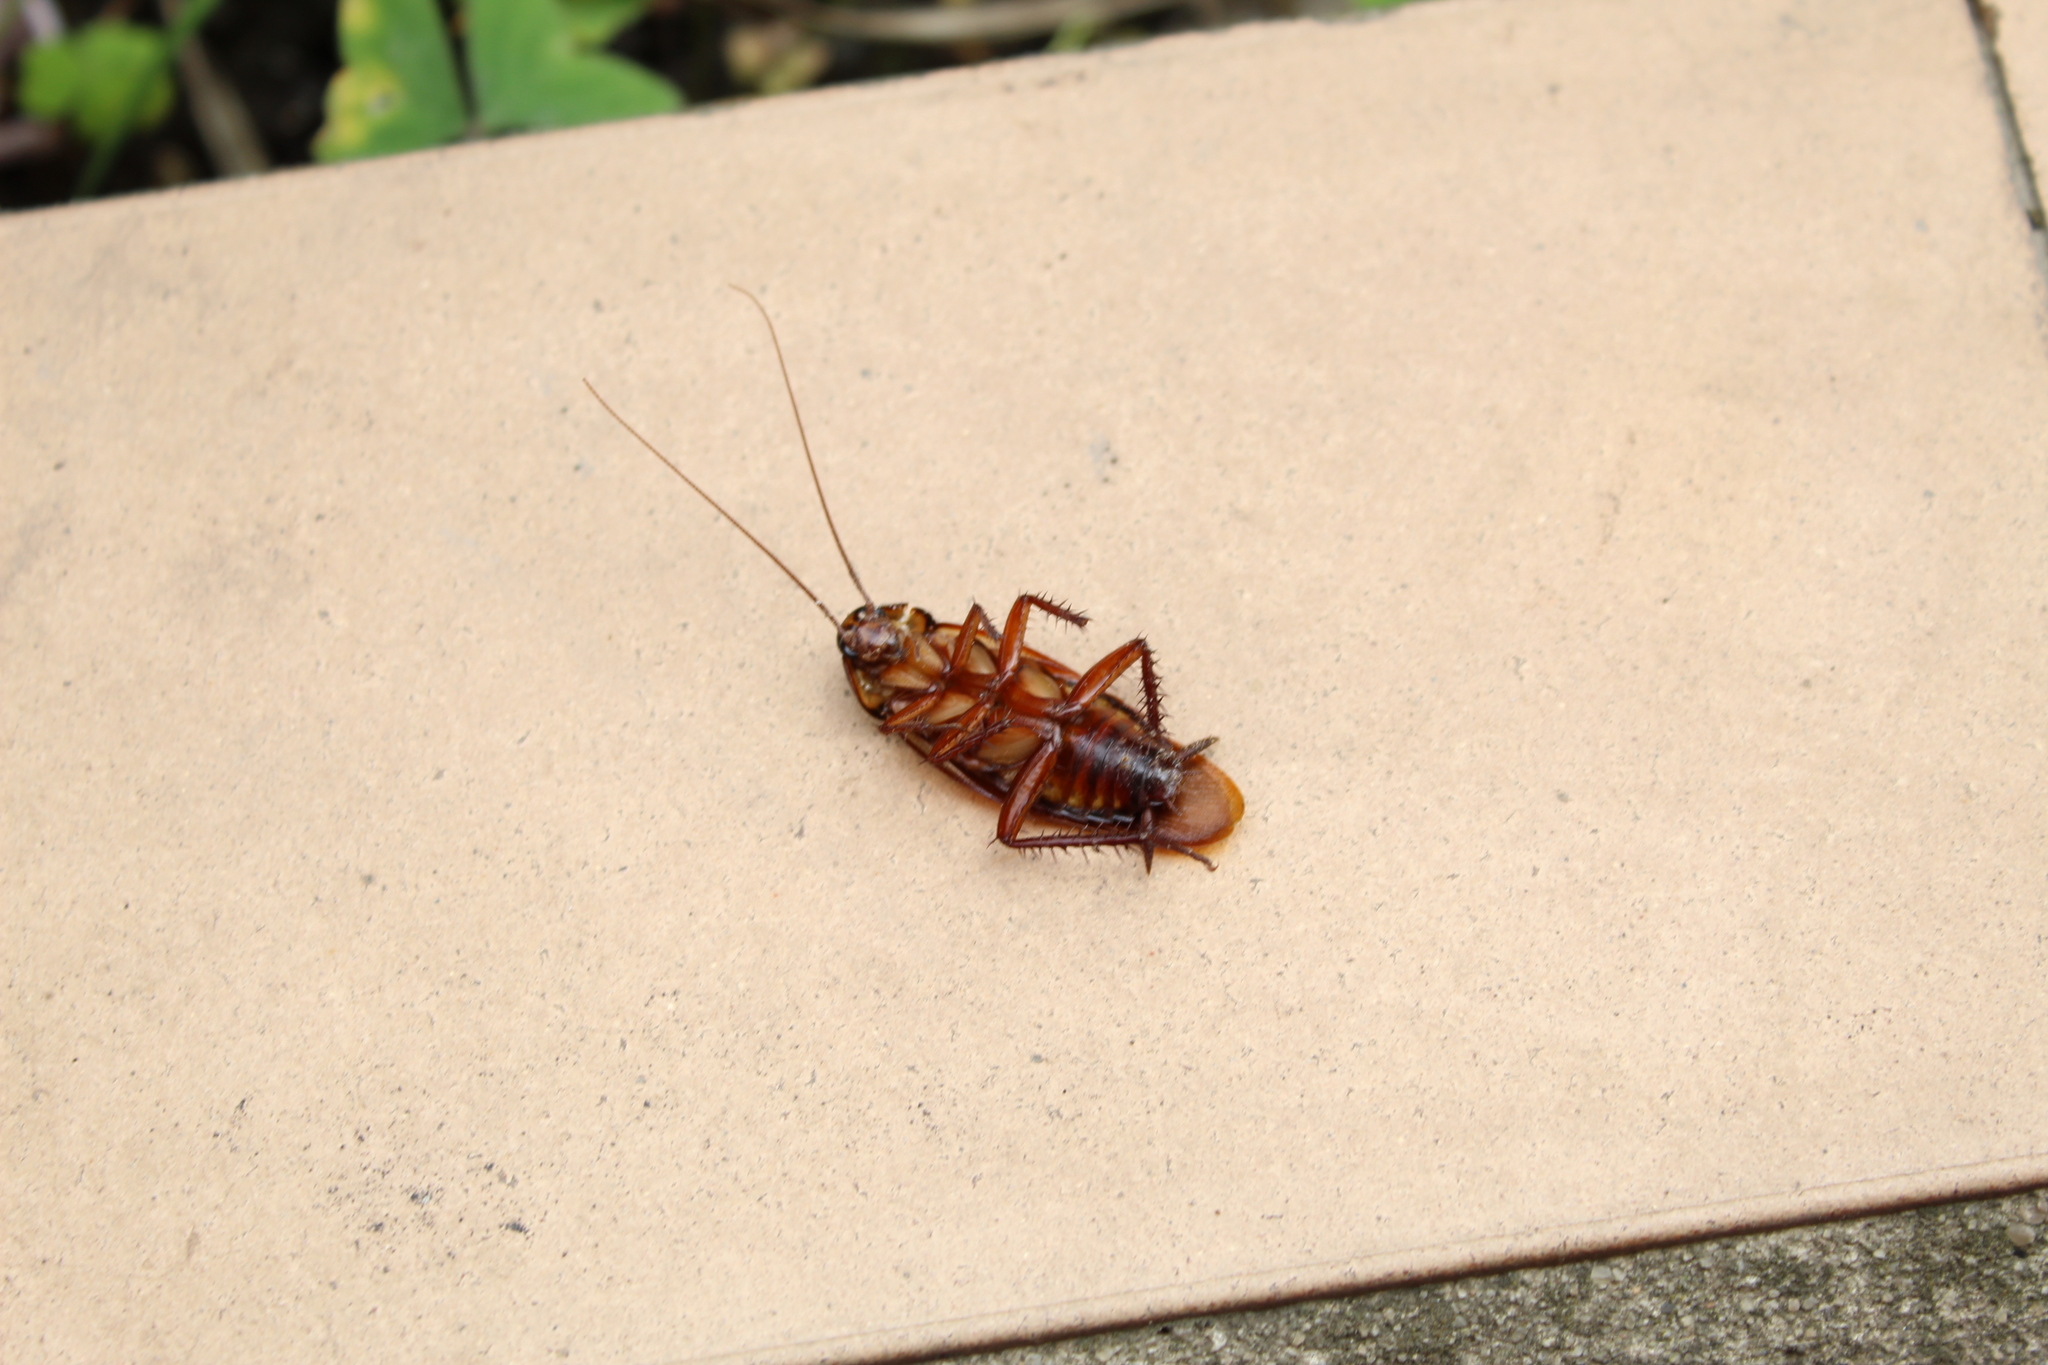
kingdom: Animalia
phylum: Arthropoda
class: Insecta
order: Blattodea
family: Blattidae
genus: Periplaneta
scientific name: Periplaneta australasiae
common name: Australian cockroach
